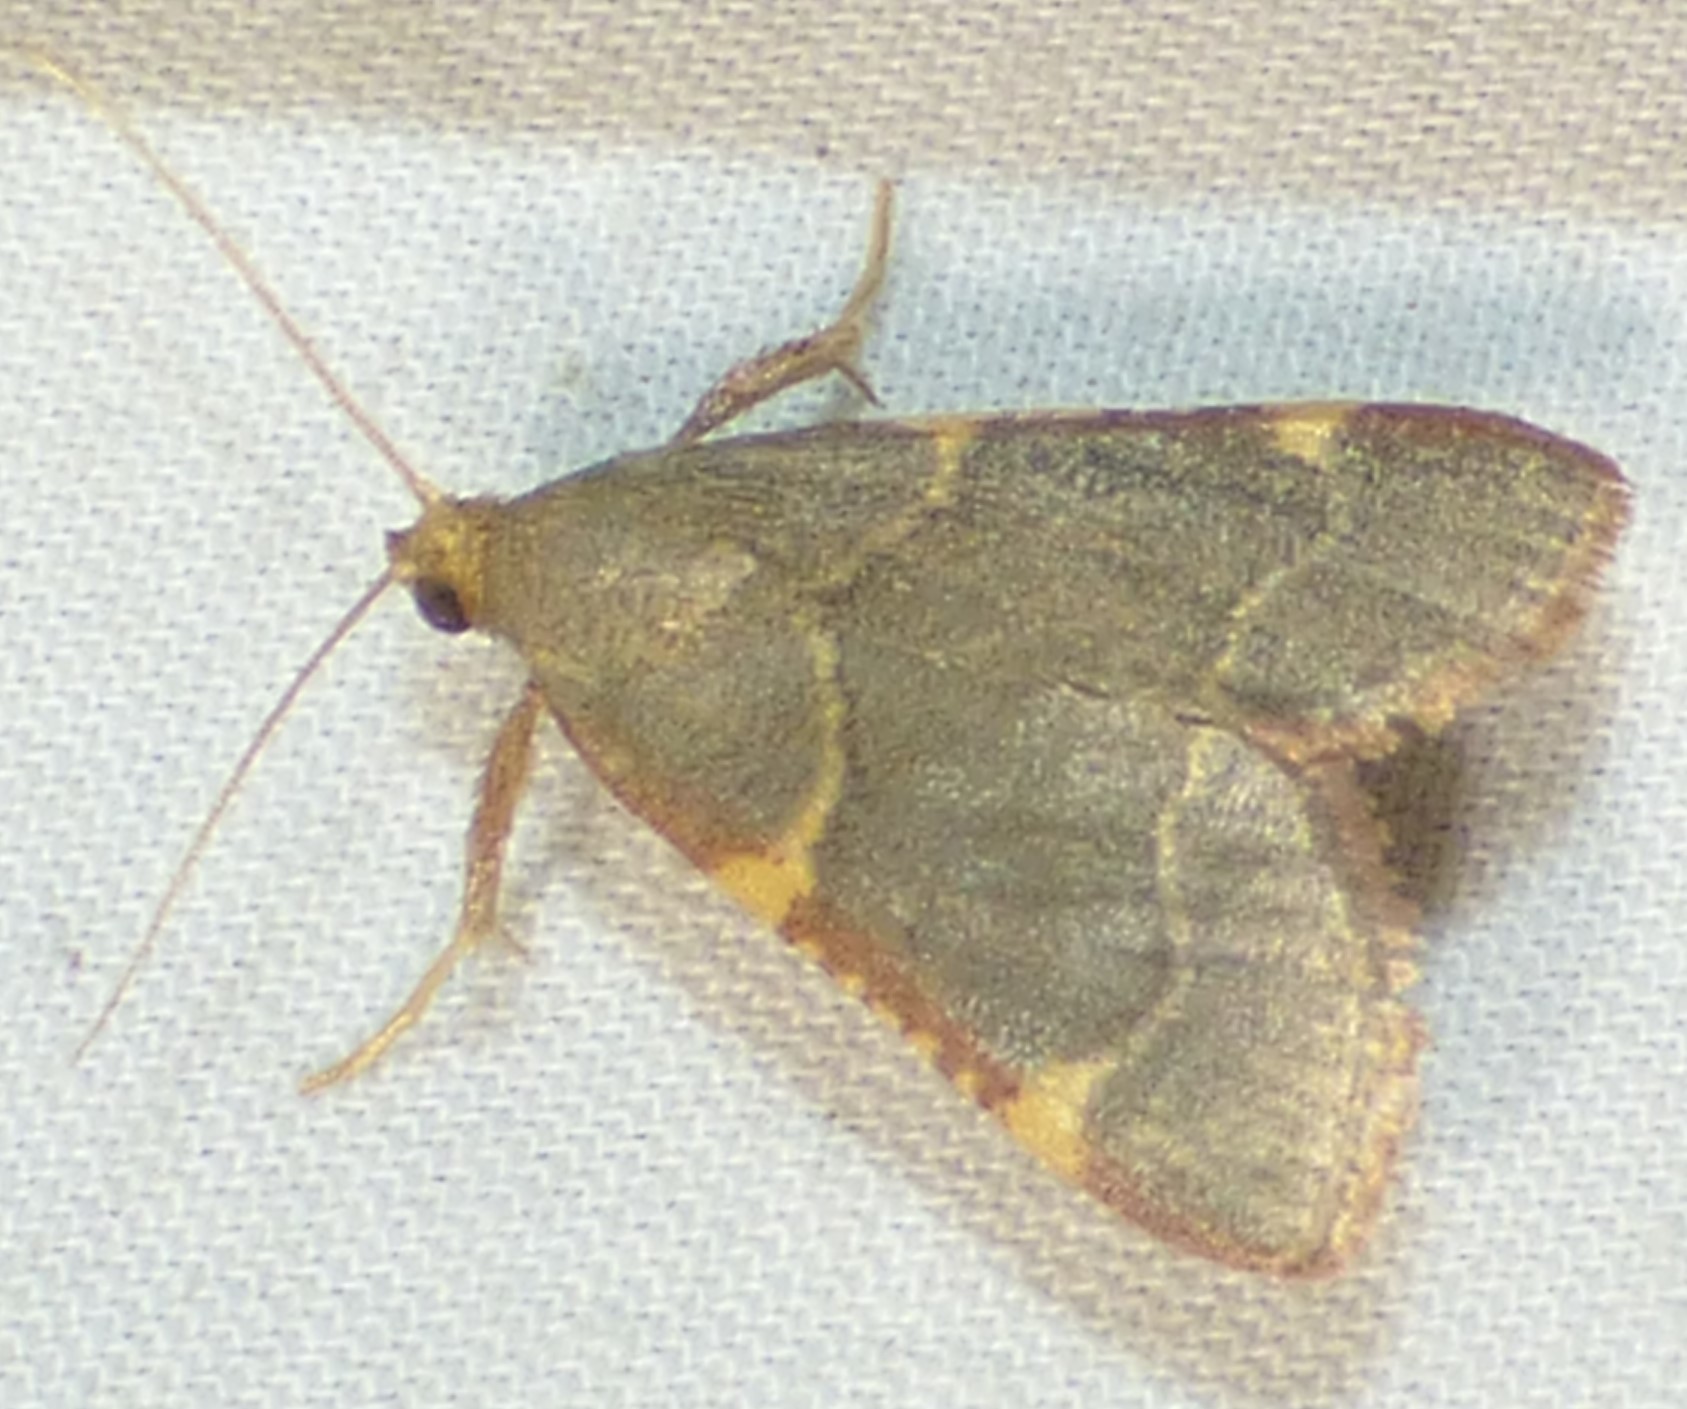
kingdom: Animalia
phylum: Arthropoda
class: Insecta
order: Lepidoptera
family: Pyralidae
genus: Hypsopygia
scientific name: Hypsopygia binodulalis
